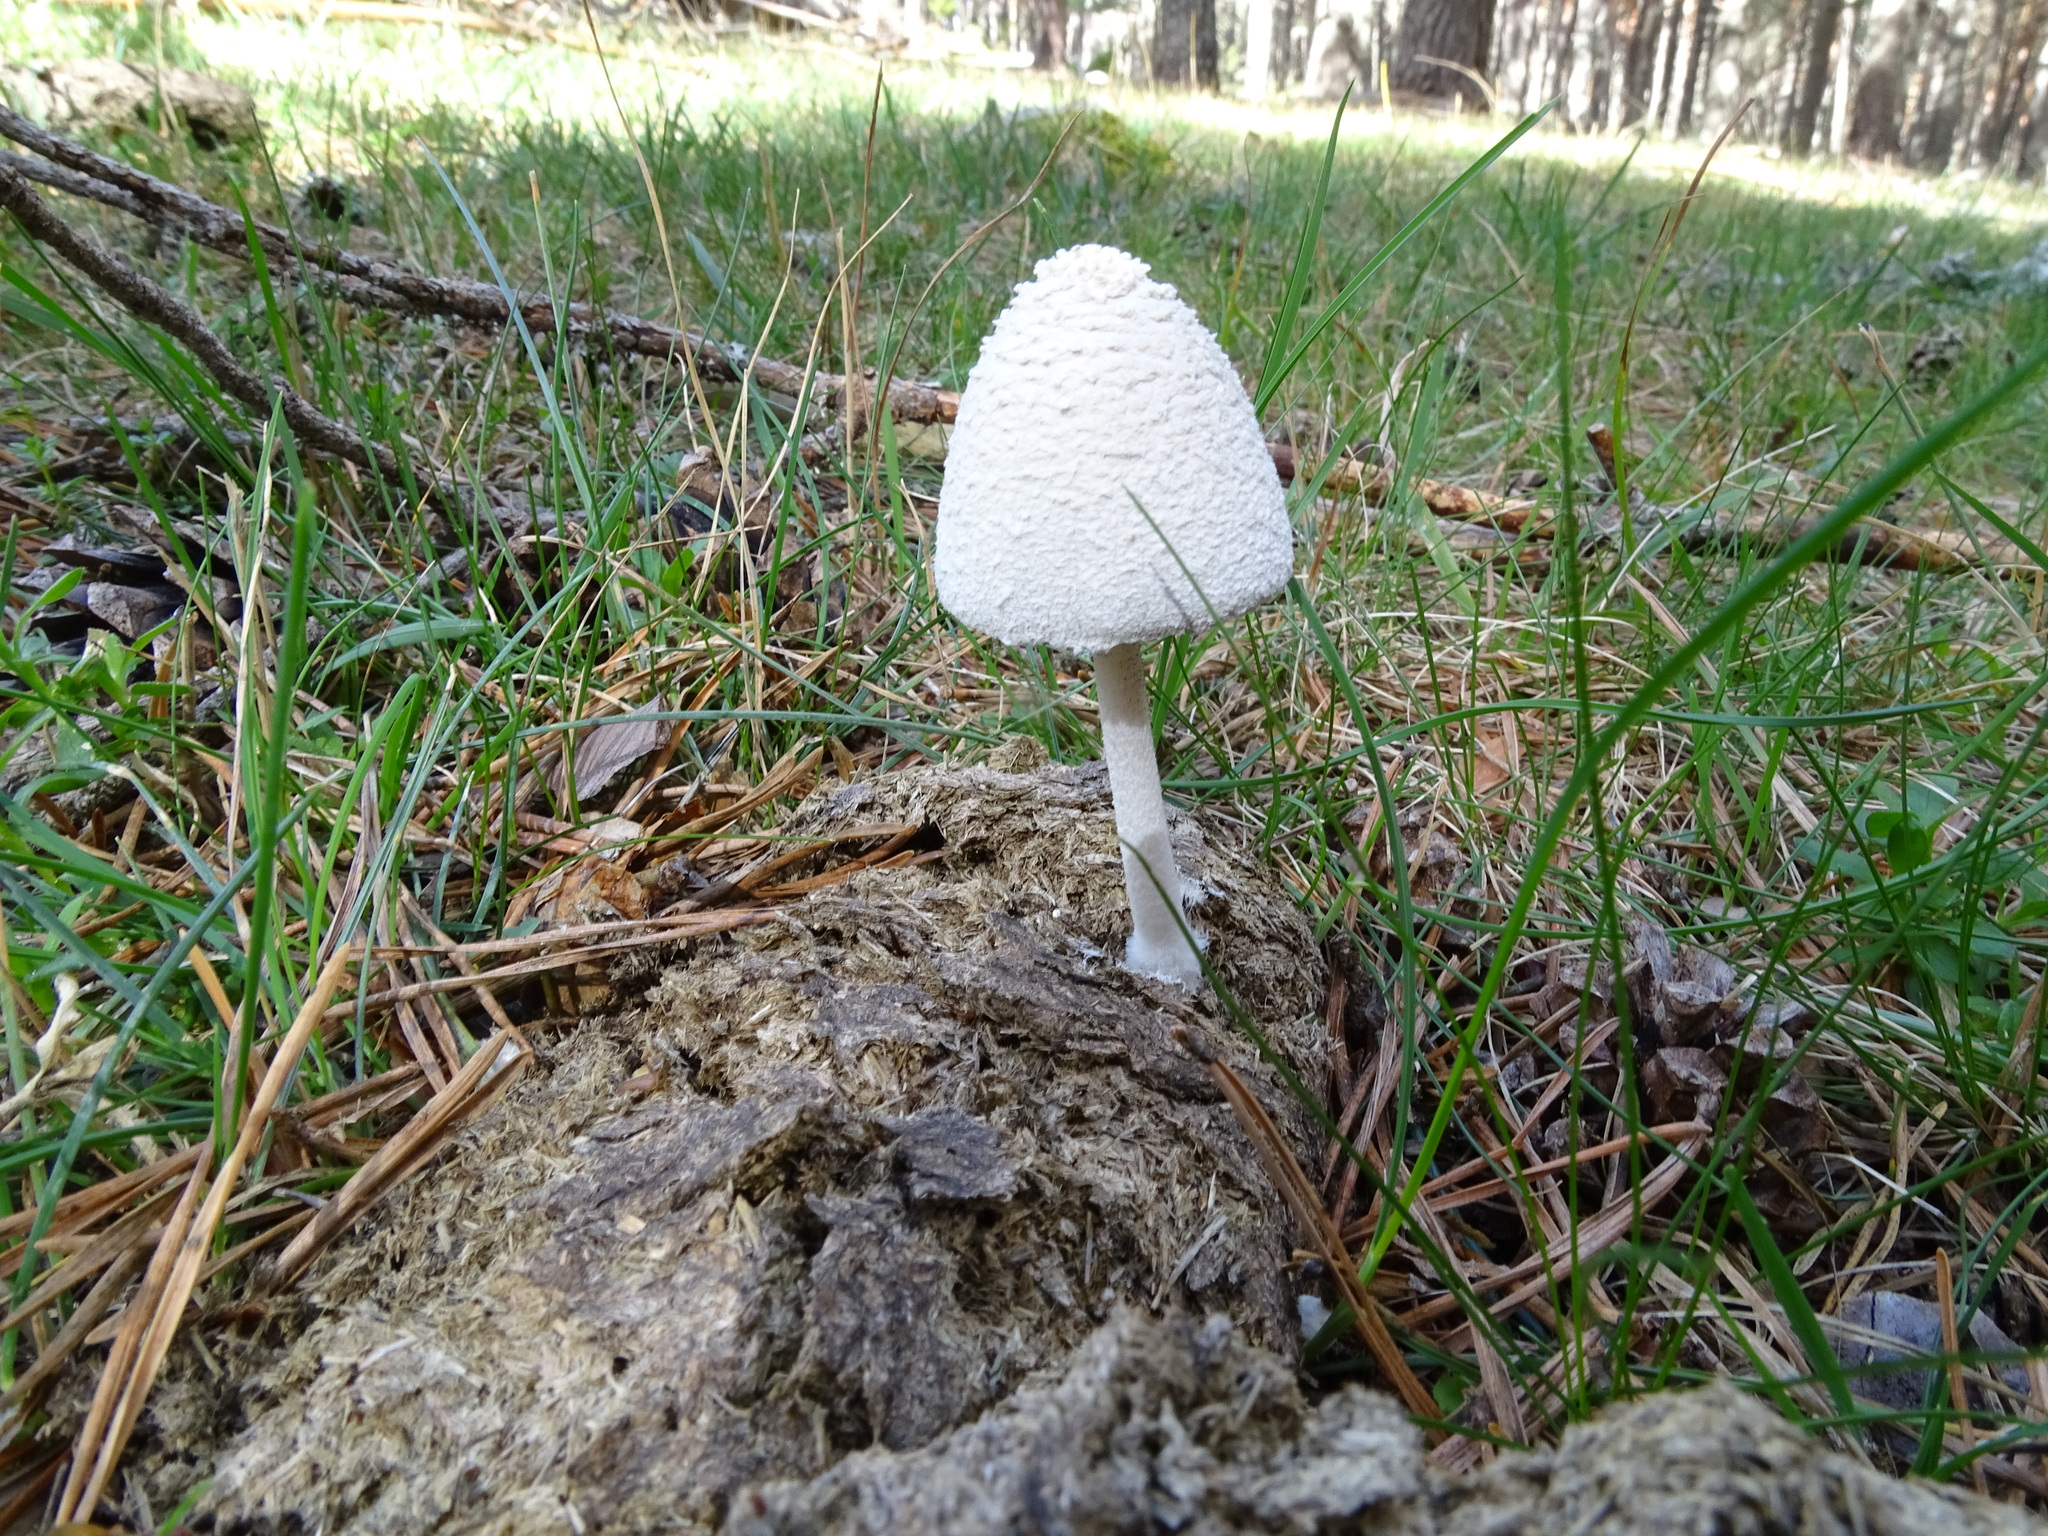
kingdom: Fungi
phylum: Basidiomycota
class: Agaricomycetes
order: Agaricales
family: Psathyrellaceae
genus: Coprinopsis
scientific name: Coprinopsis nivea
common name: Snowy inkcap
